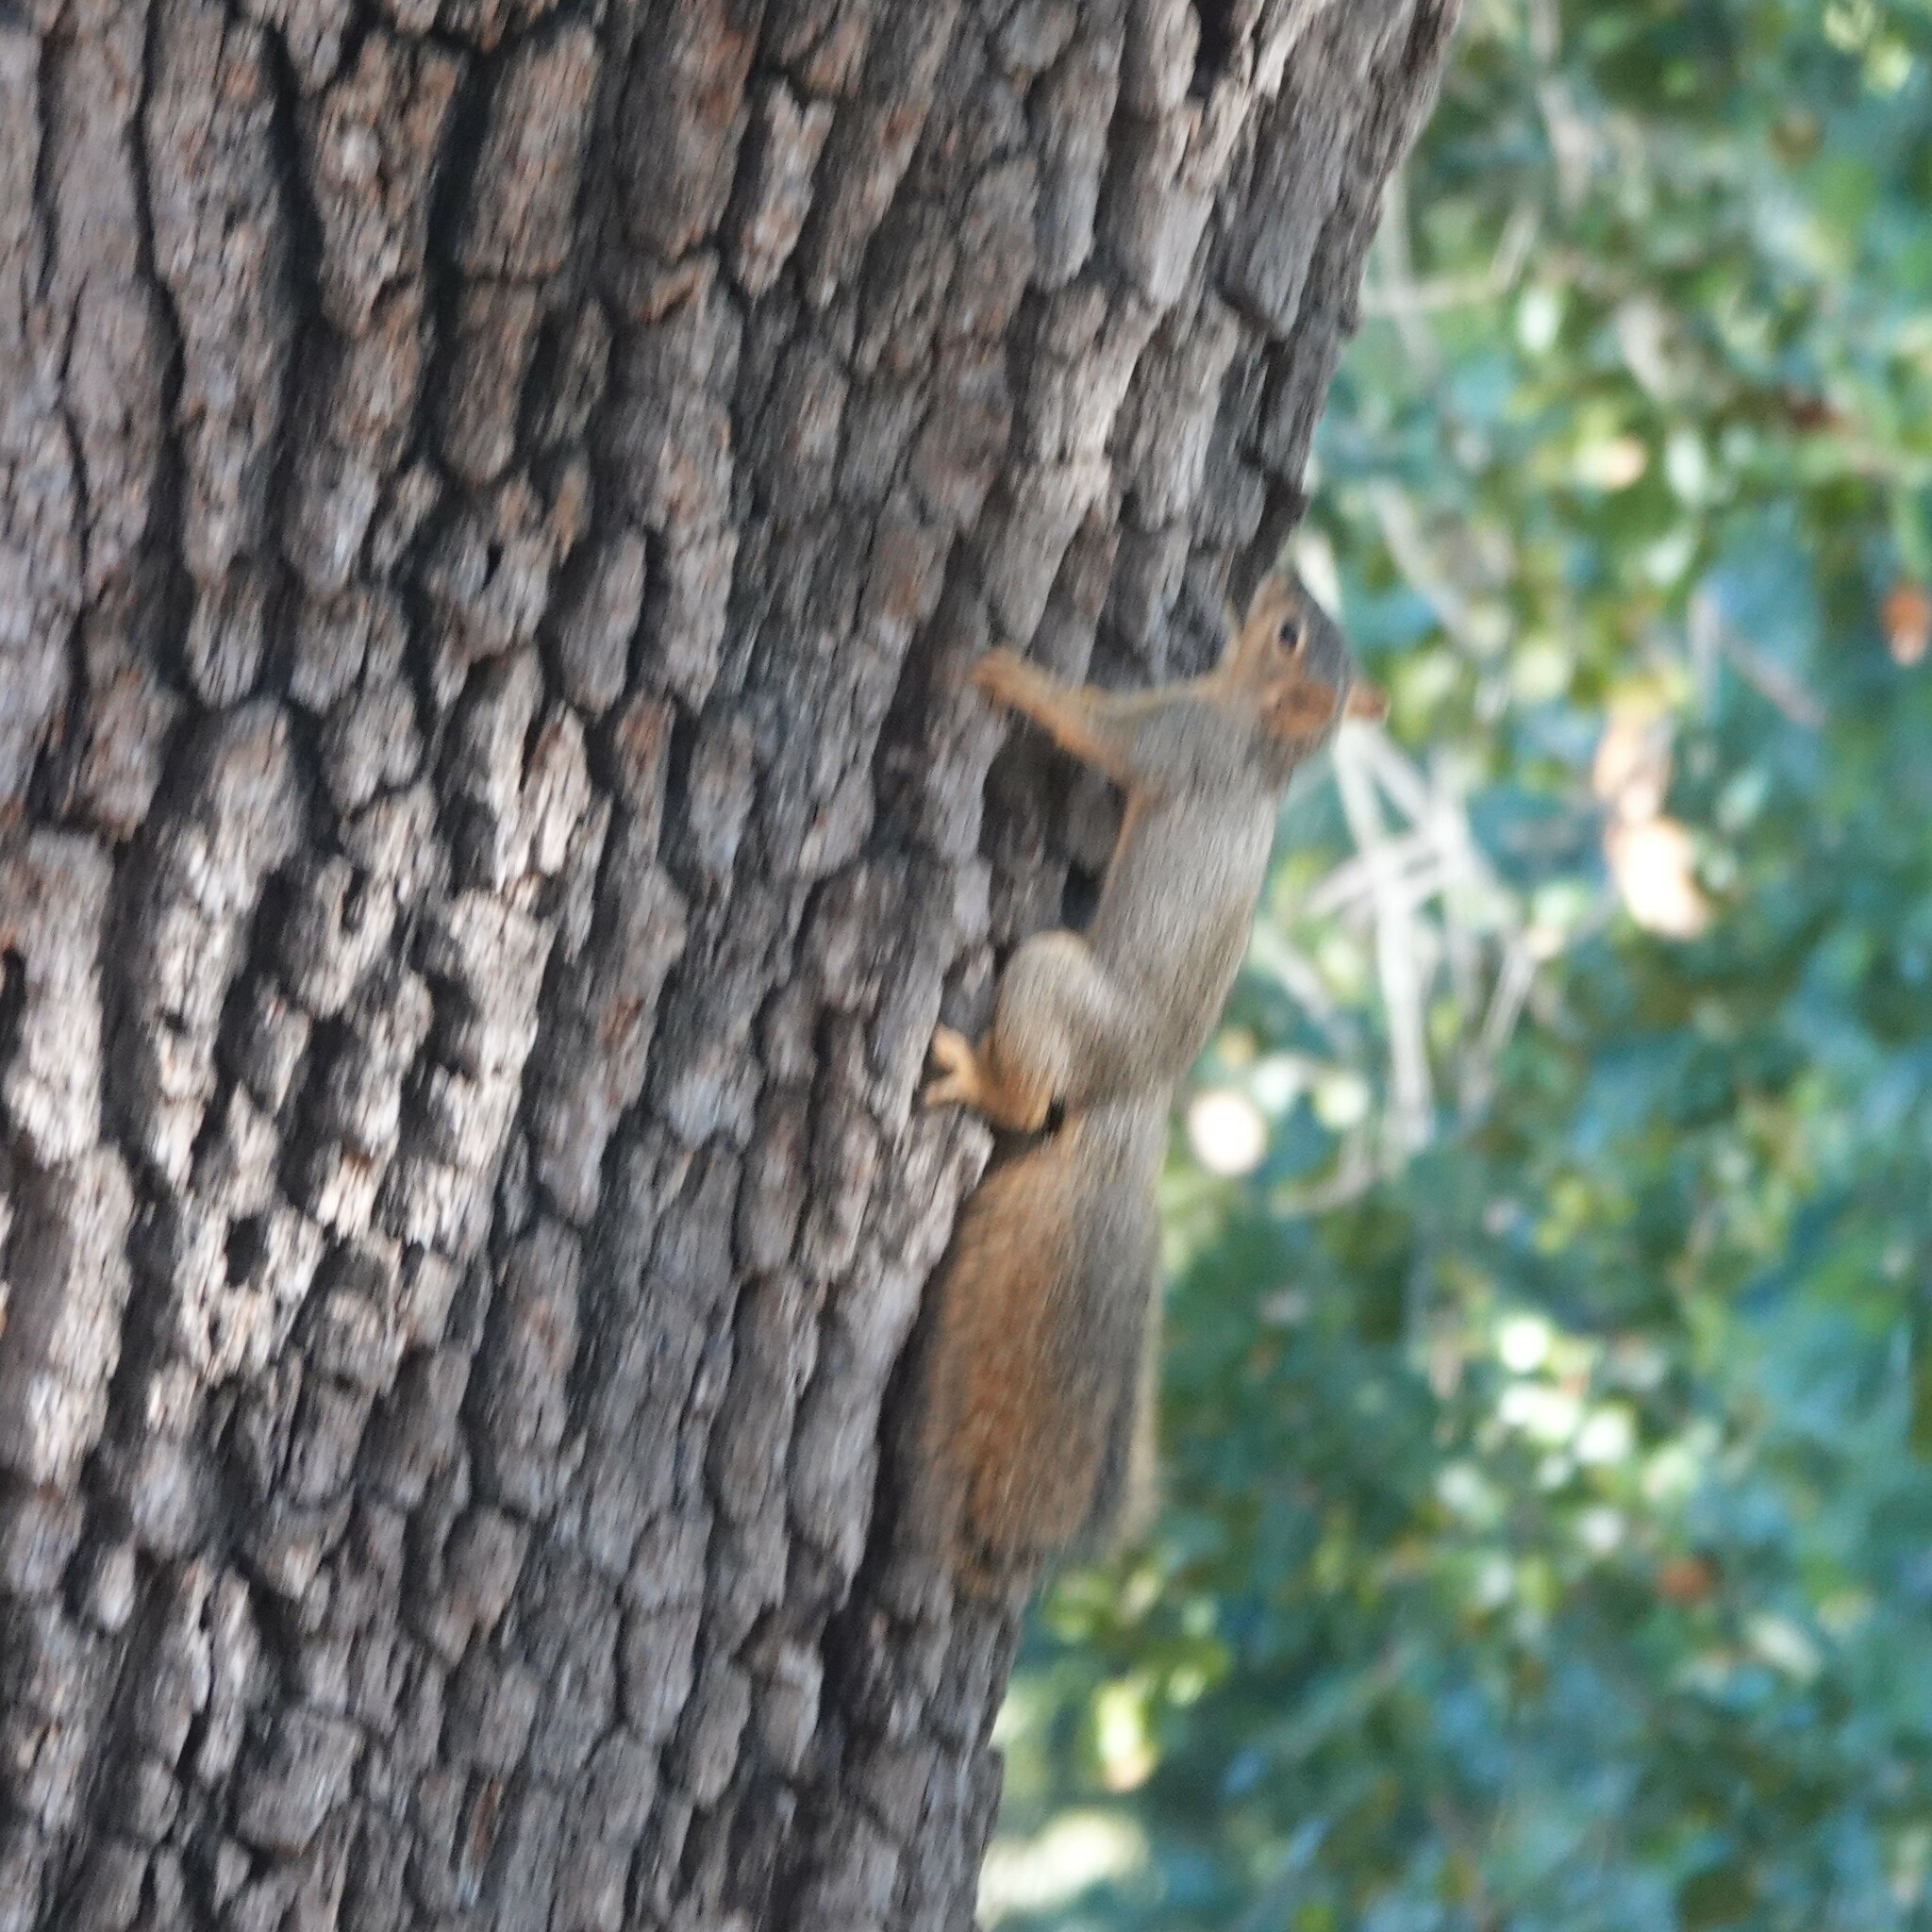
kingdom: Animalia
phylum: Chordata
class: Mammalia
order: Rodentia
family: Sciuridae
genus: Sciurus
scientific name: Sciurus niger
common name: Fox squirrel
